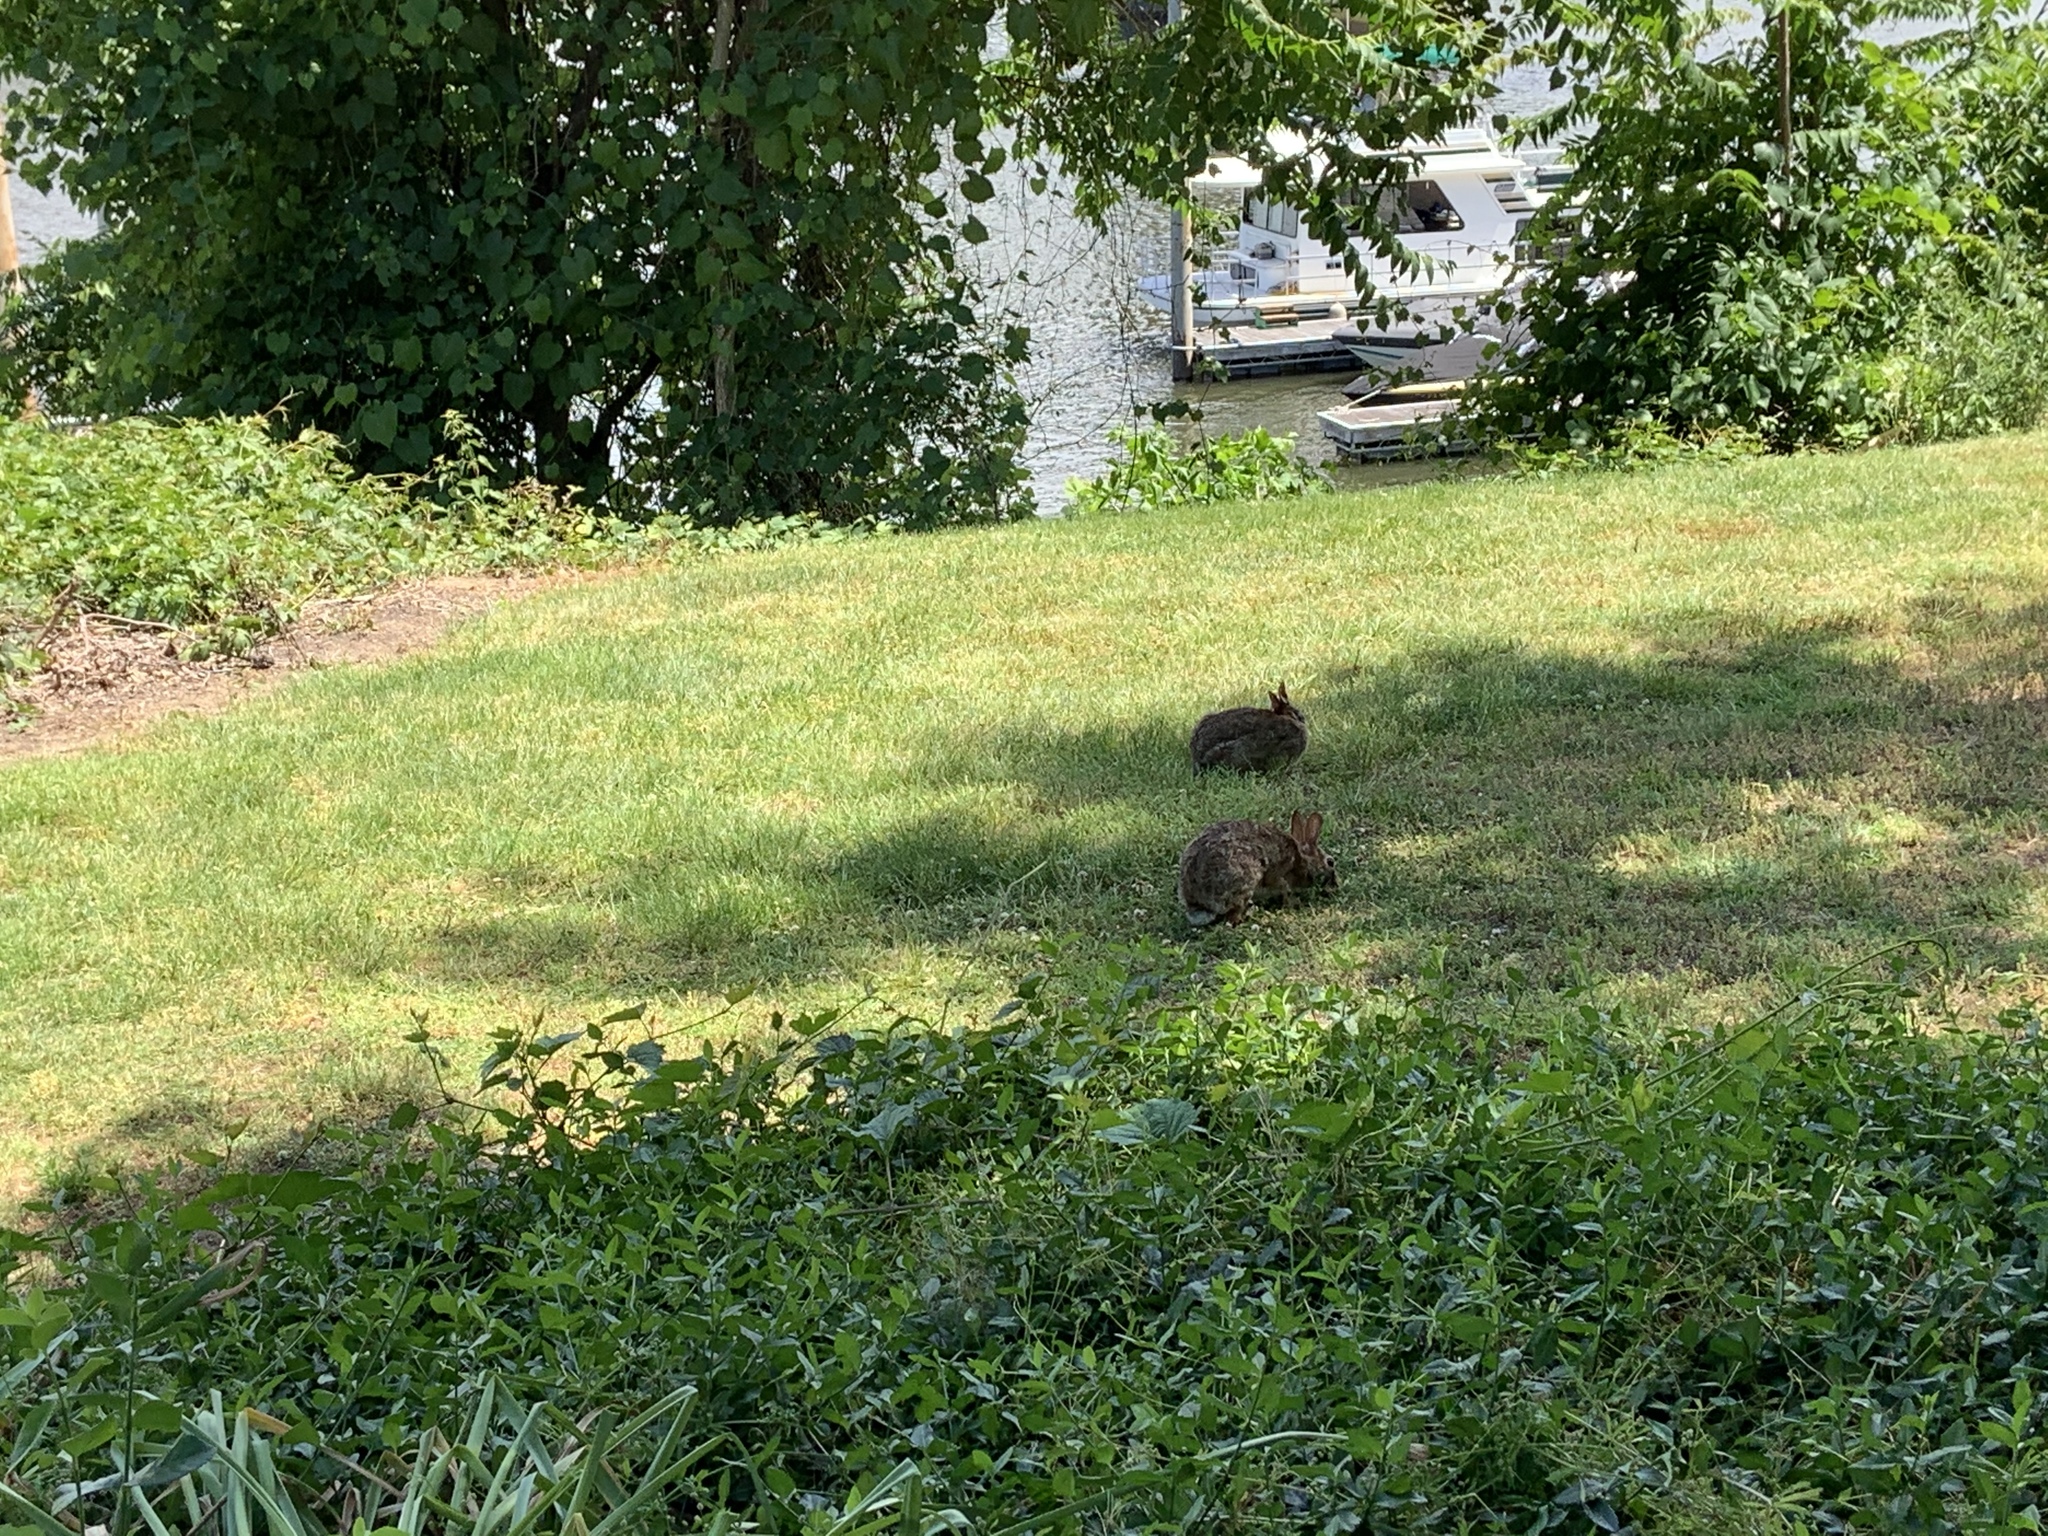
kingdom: Animalia
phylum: Chordata
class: Mammalia
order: Lagomorpha
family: Leporidae
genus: Sylvilagus
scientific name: Sylvilagus floridanus
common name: Eastern cottontail
